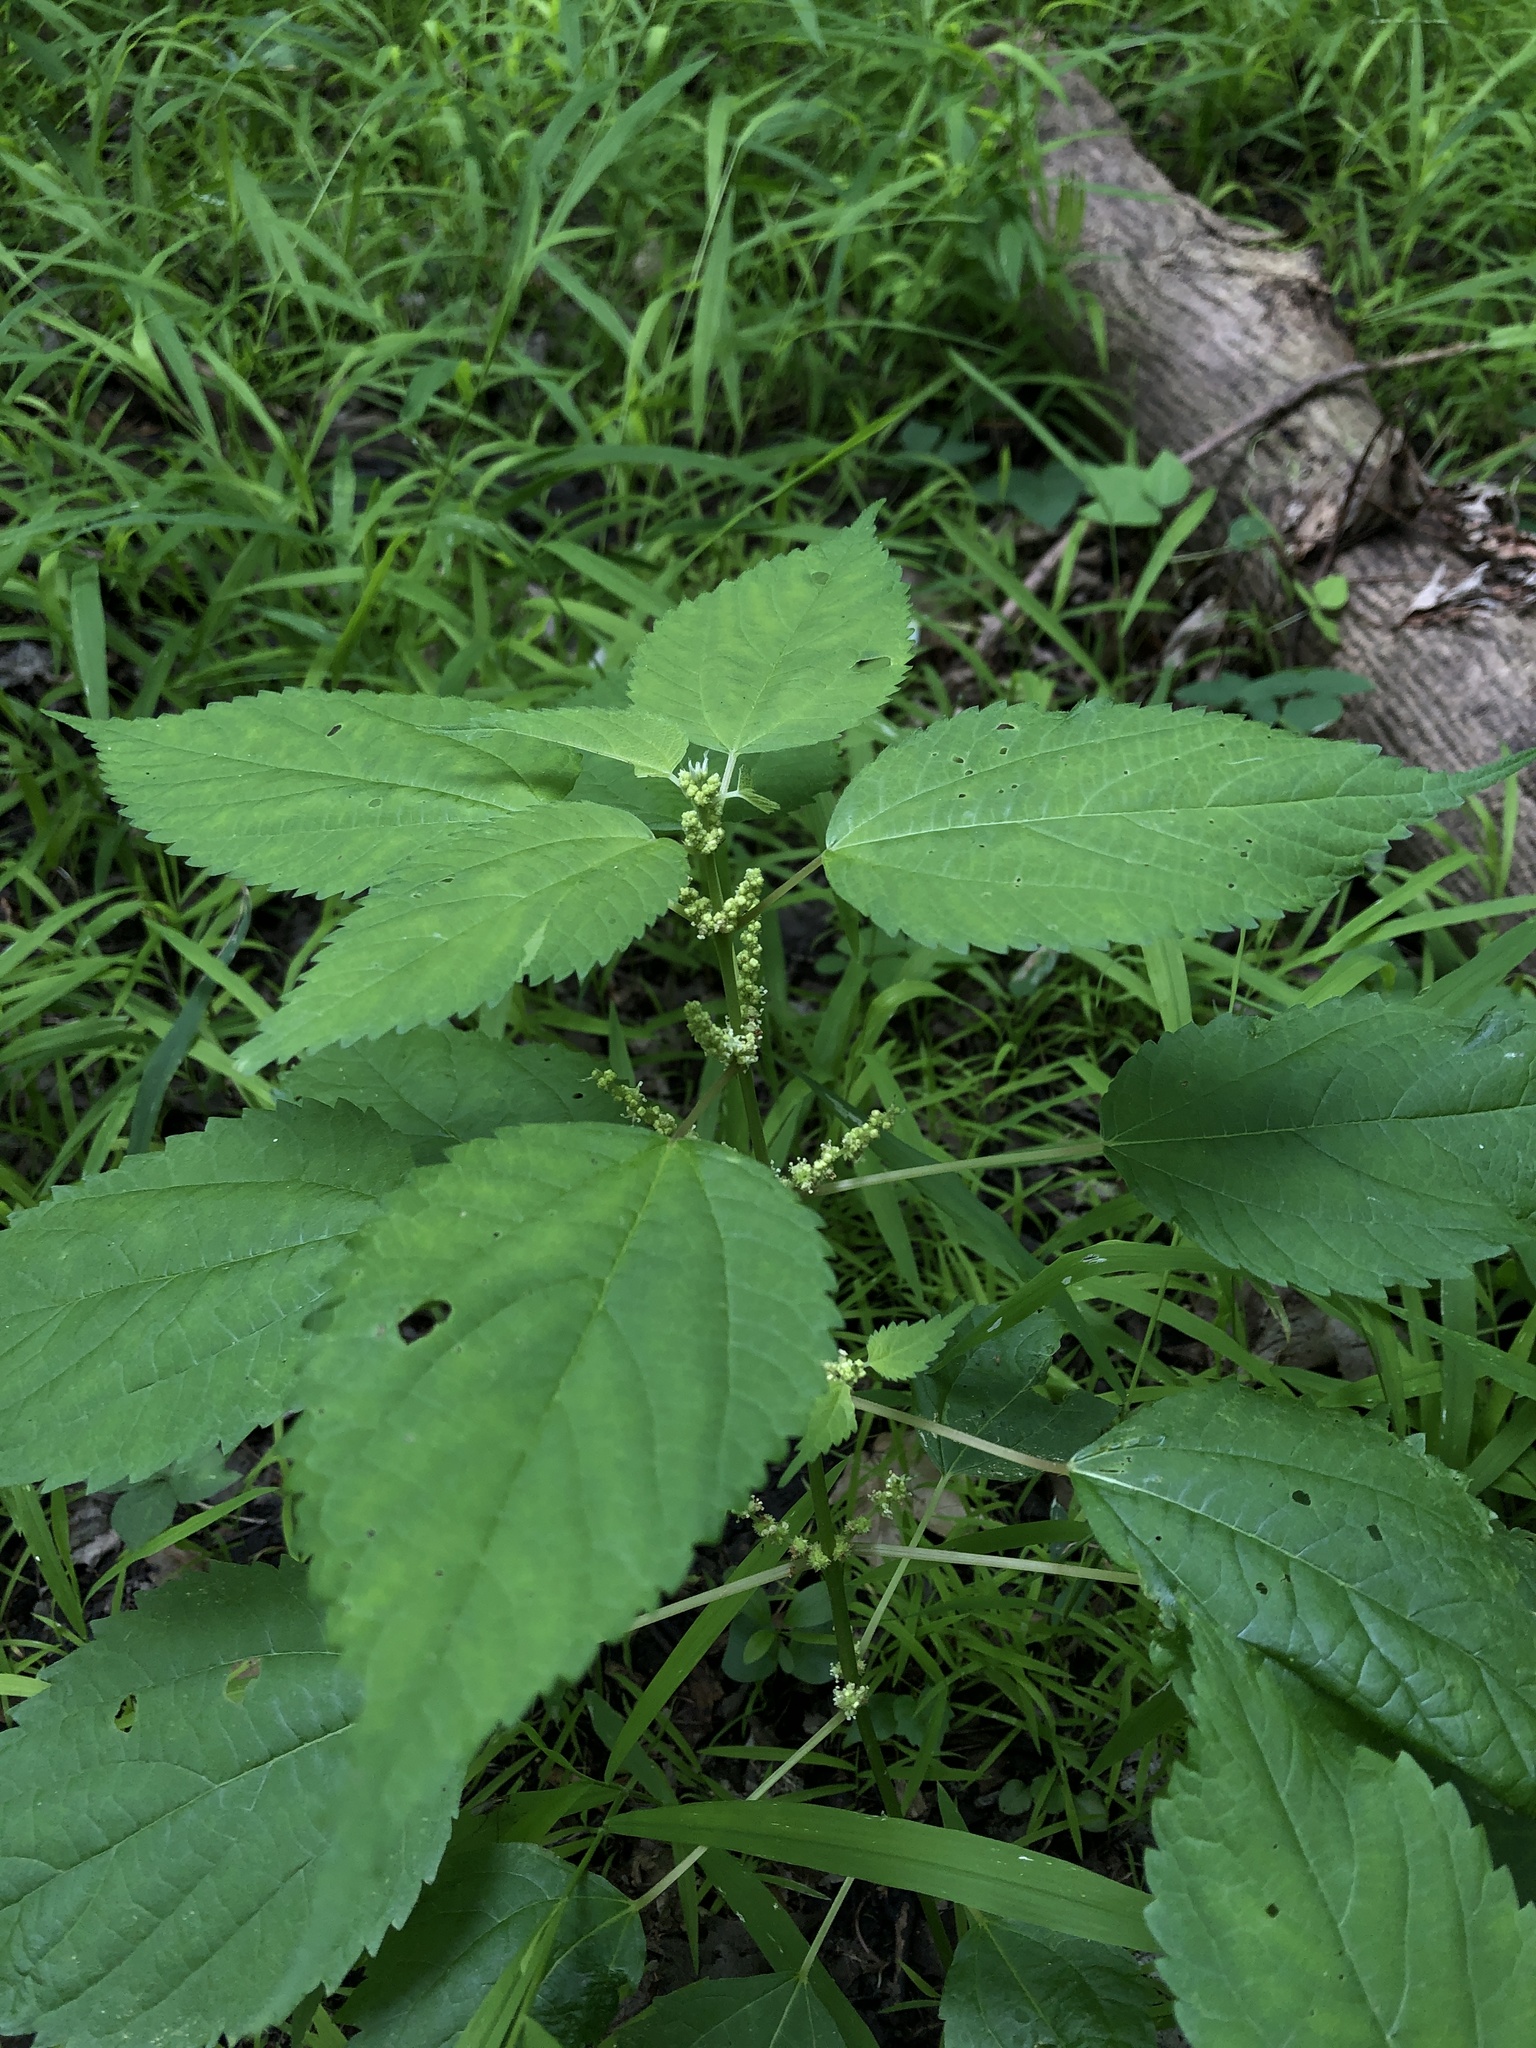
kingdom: Plantae
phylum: Tracheophyta
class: Magnoliopsida
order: Rosales
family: Urticaceae
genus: Laportea
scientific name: Laportea canadensis
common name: Canada nettle
